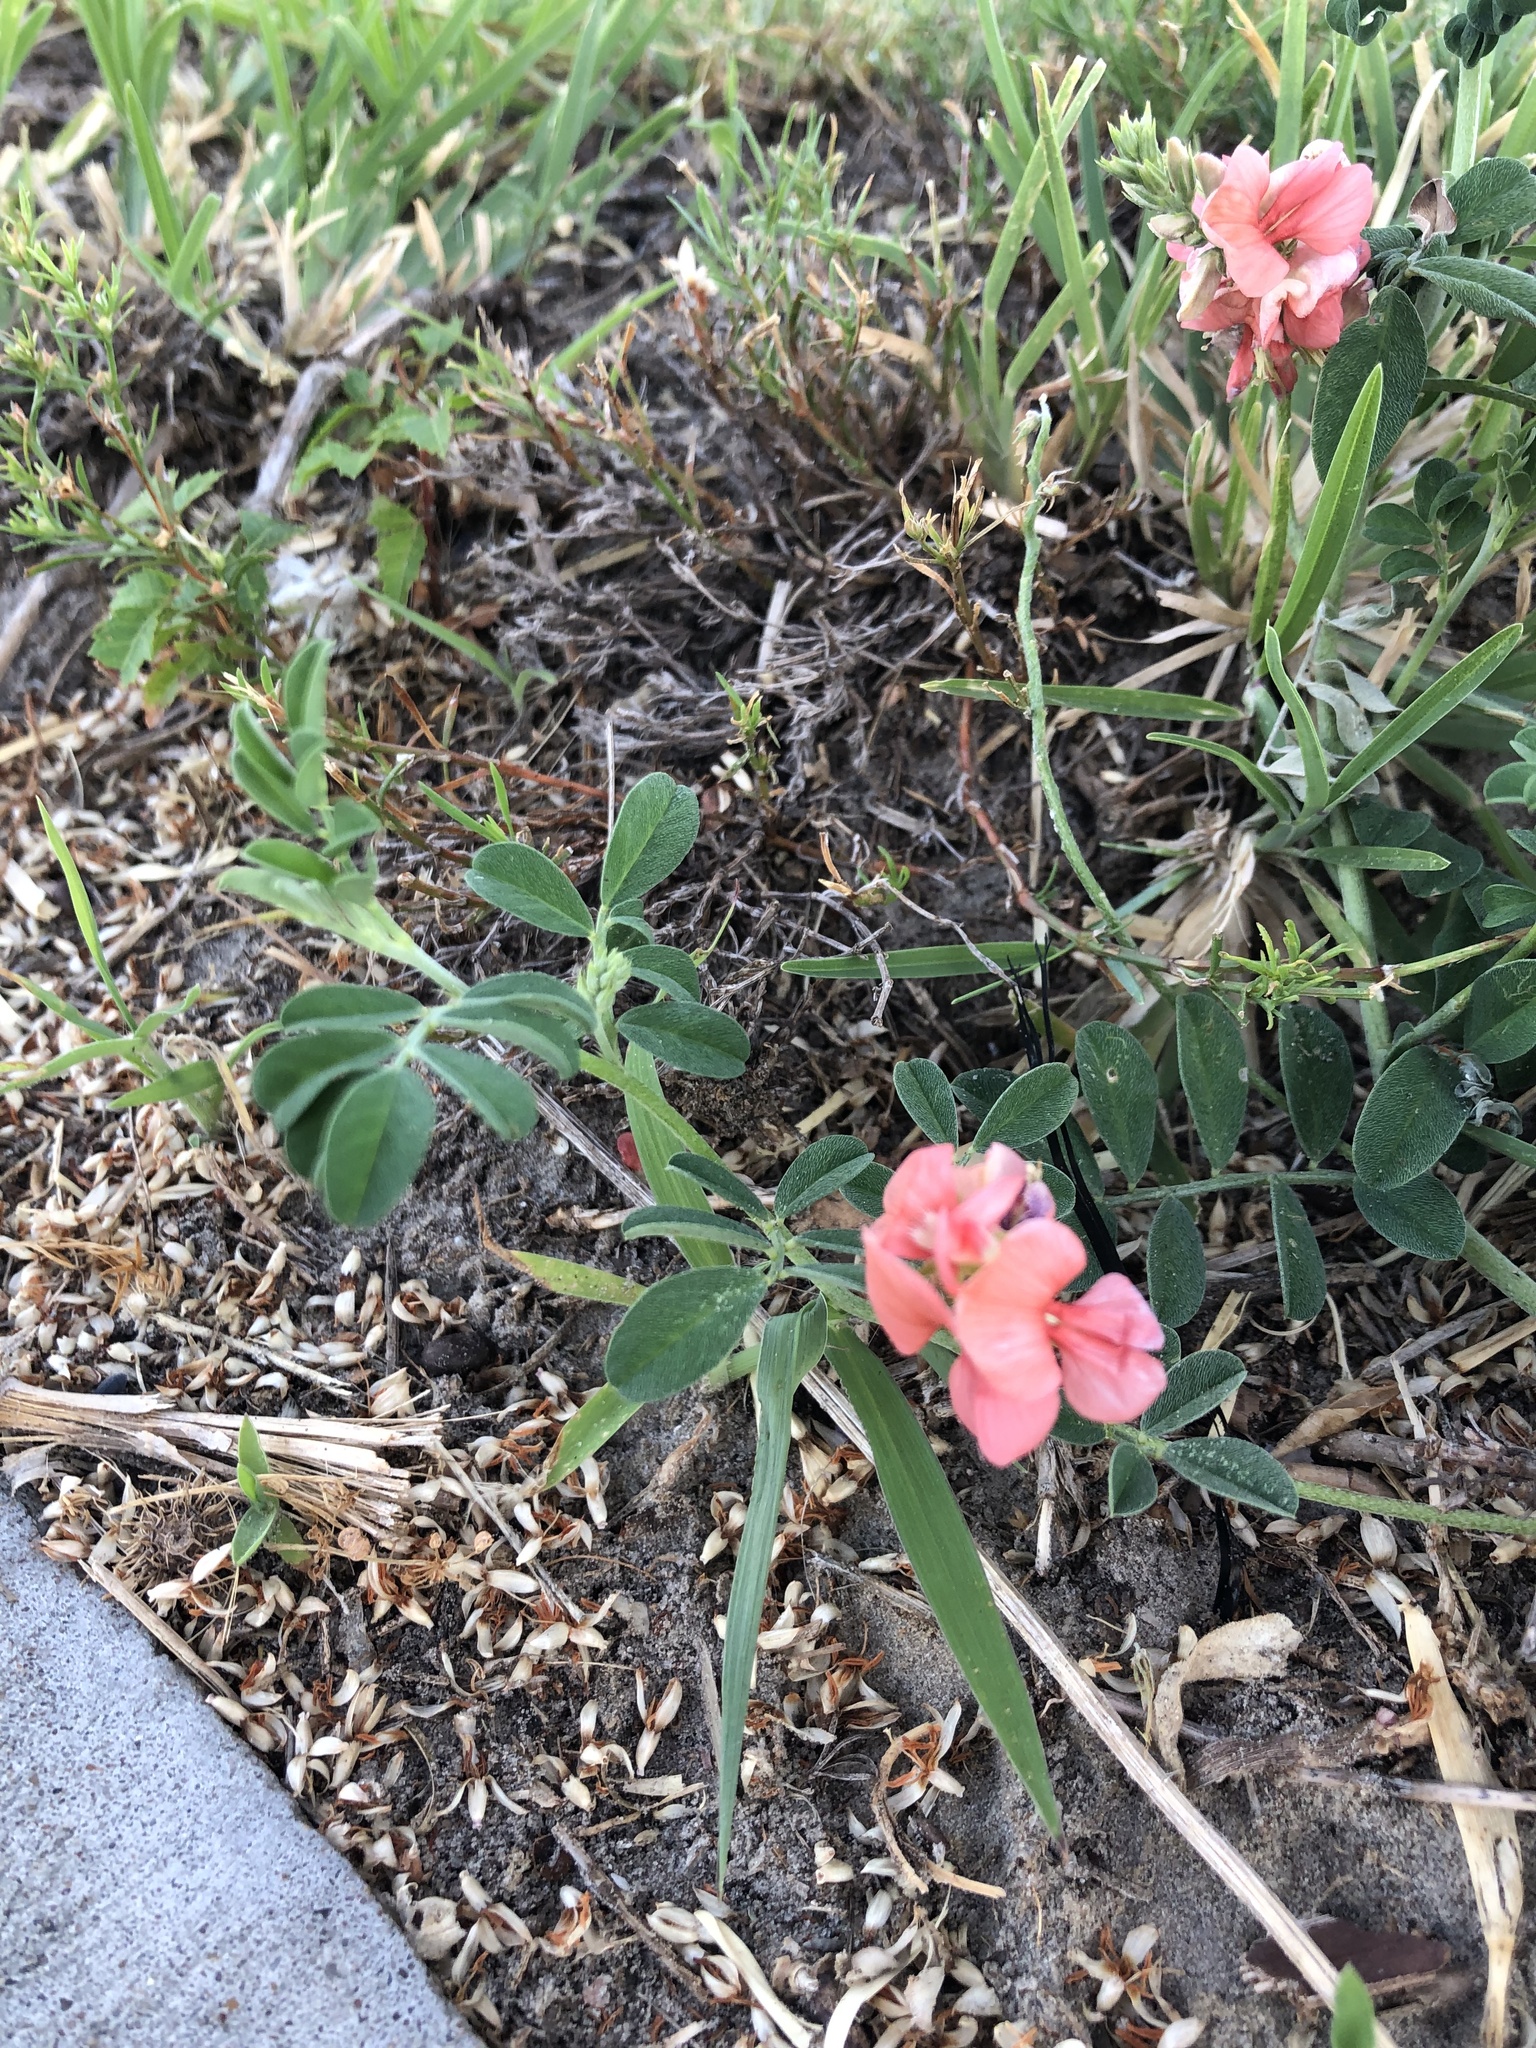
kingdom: Plantae
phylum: Tracheophyta
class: Magnoliopsida
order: Fabales
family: Fabaceae
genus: Indigofera
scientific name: Indigofera miniata
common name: Coast indigo
